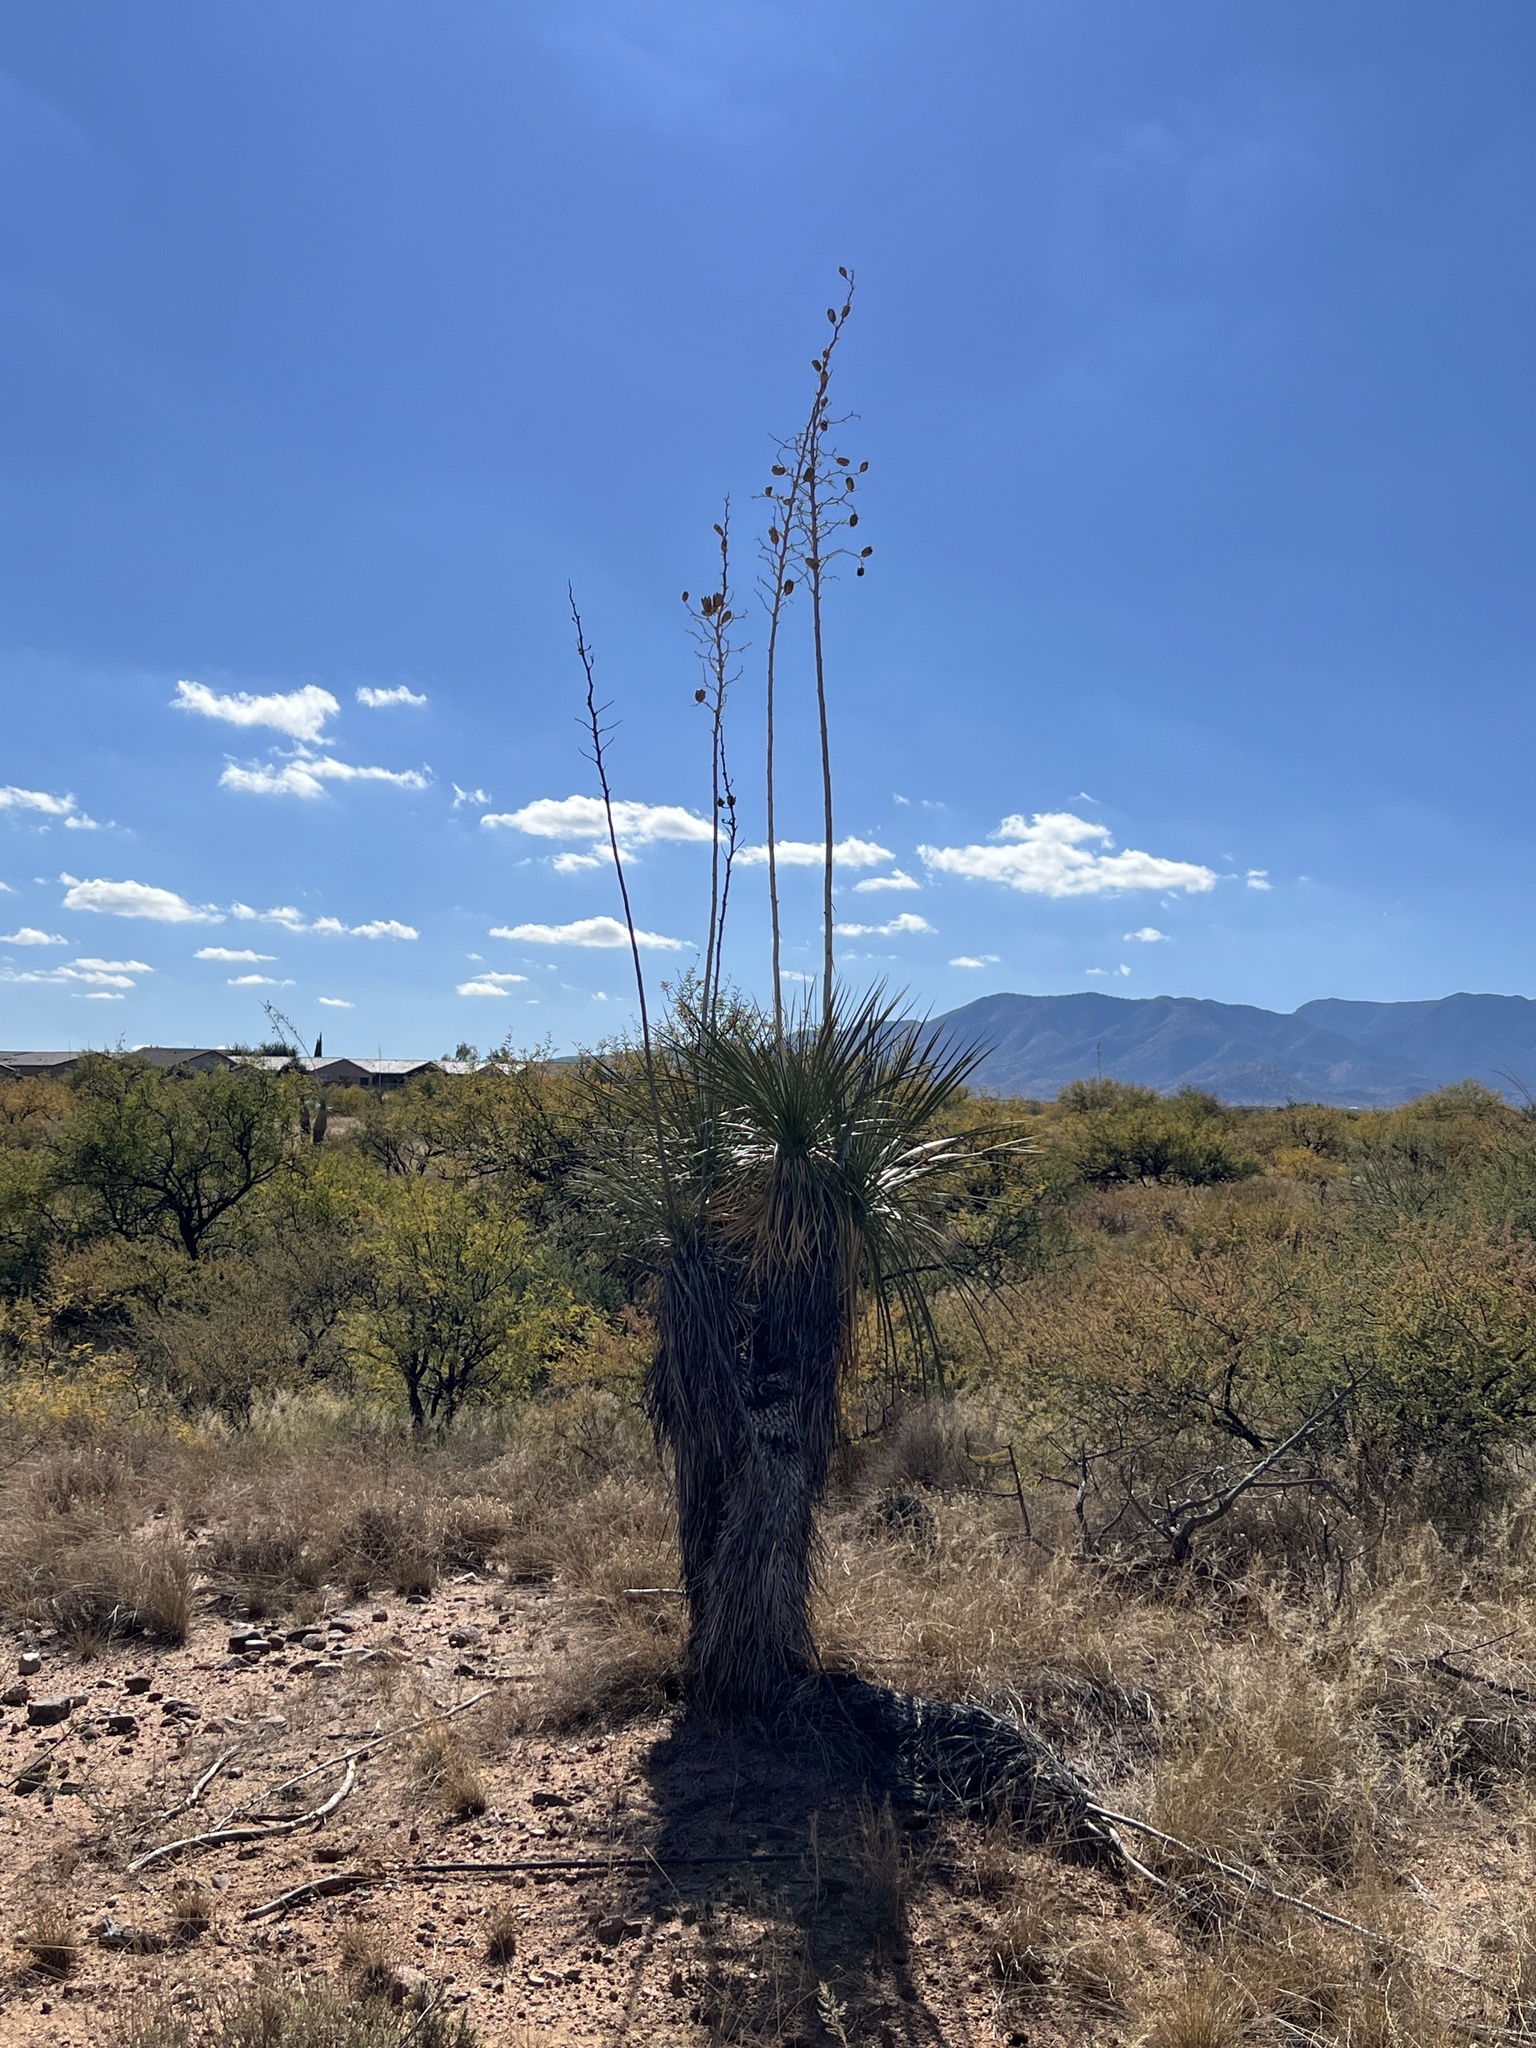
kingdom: Plantae
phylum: Tracheophyta
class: Liliopsida
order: Asparagales
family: Asparagaceae
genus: Yucca
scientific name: Yucca elata
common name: Palmella
